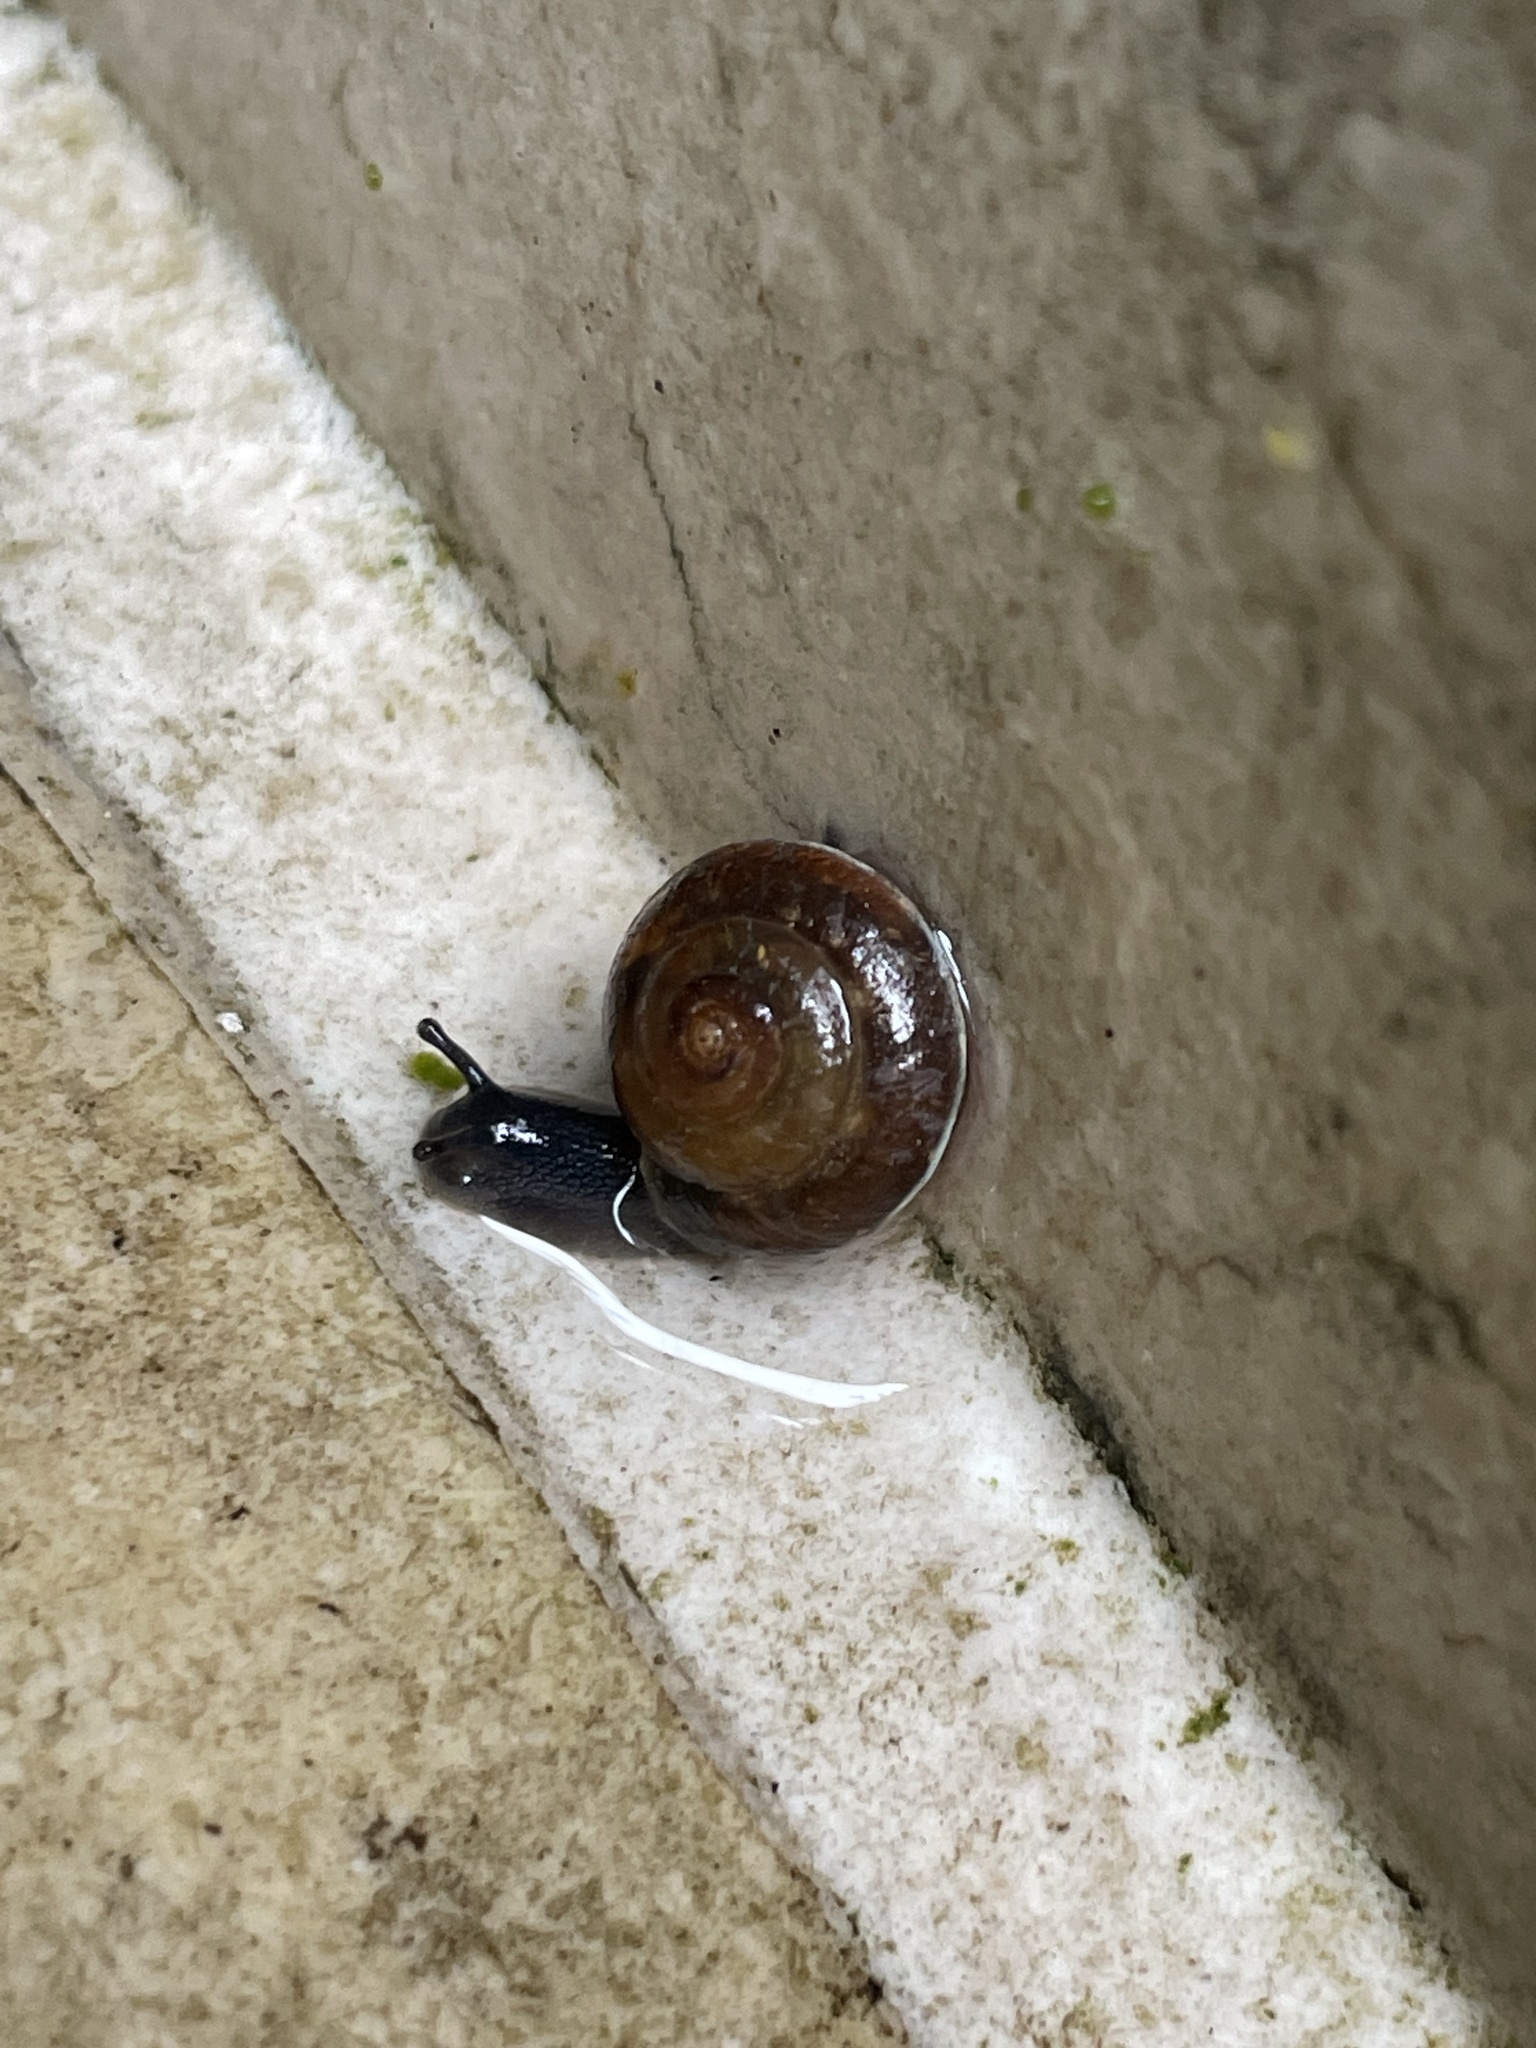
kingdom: Animalia
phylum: Mollusca
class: Gastropoda
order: Stylommatophora
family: Hygromiidae
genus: Hygromia
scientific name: Hygromia cinctella
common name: Girdled snail
